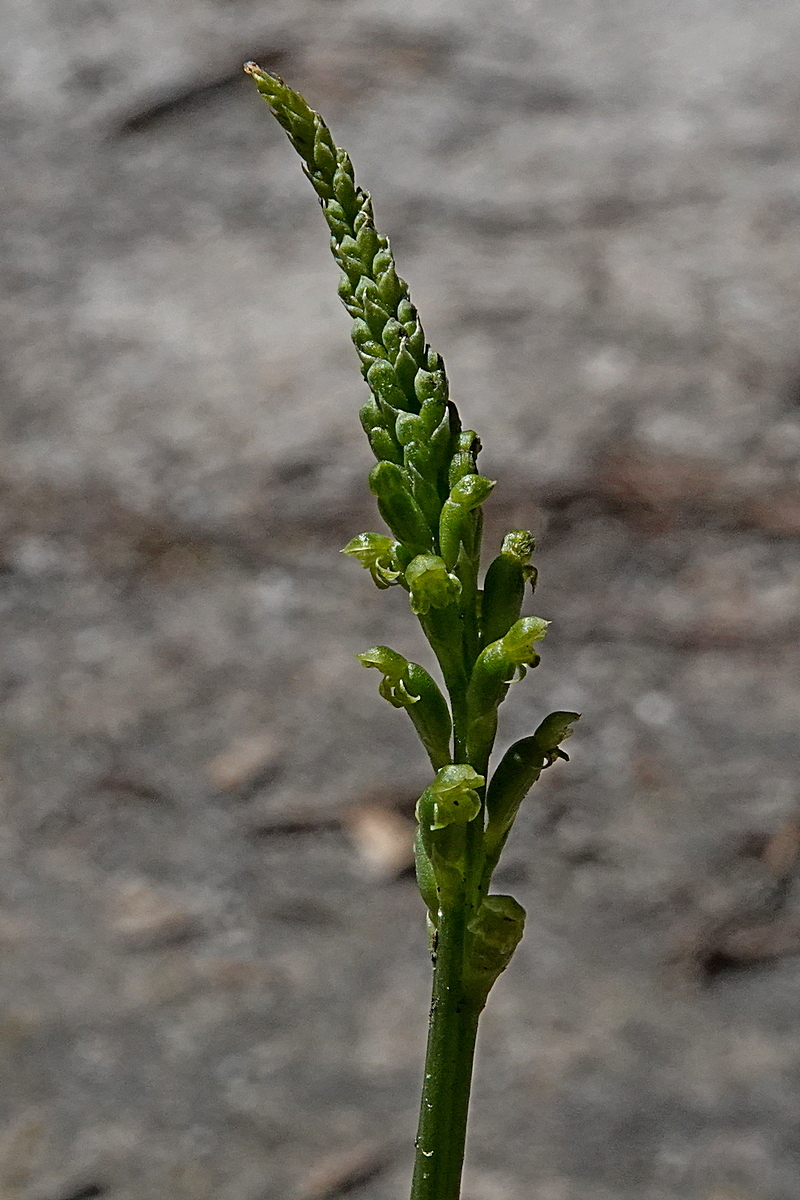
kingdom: Plantae
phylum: Tracheophyta
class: Liliopsida
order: Asparagales
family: Orchidaceae
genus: Microtis
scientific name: Microtis unifolia
